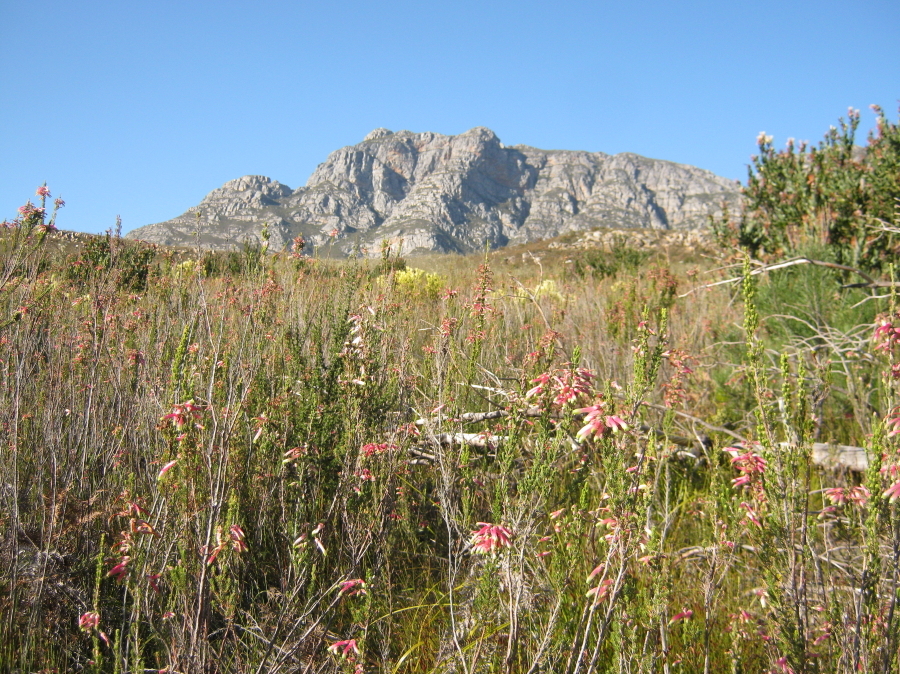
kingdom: Plantae
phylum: Tracheophyta
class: Magnoliopsida
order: Ericales
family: Ericaceae
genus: Erica
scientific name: Erica discolor
